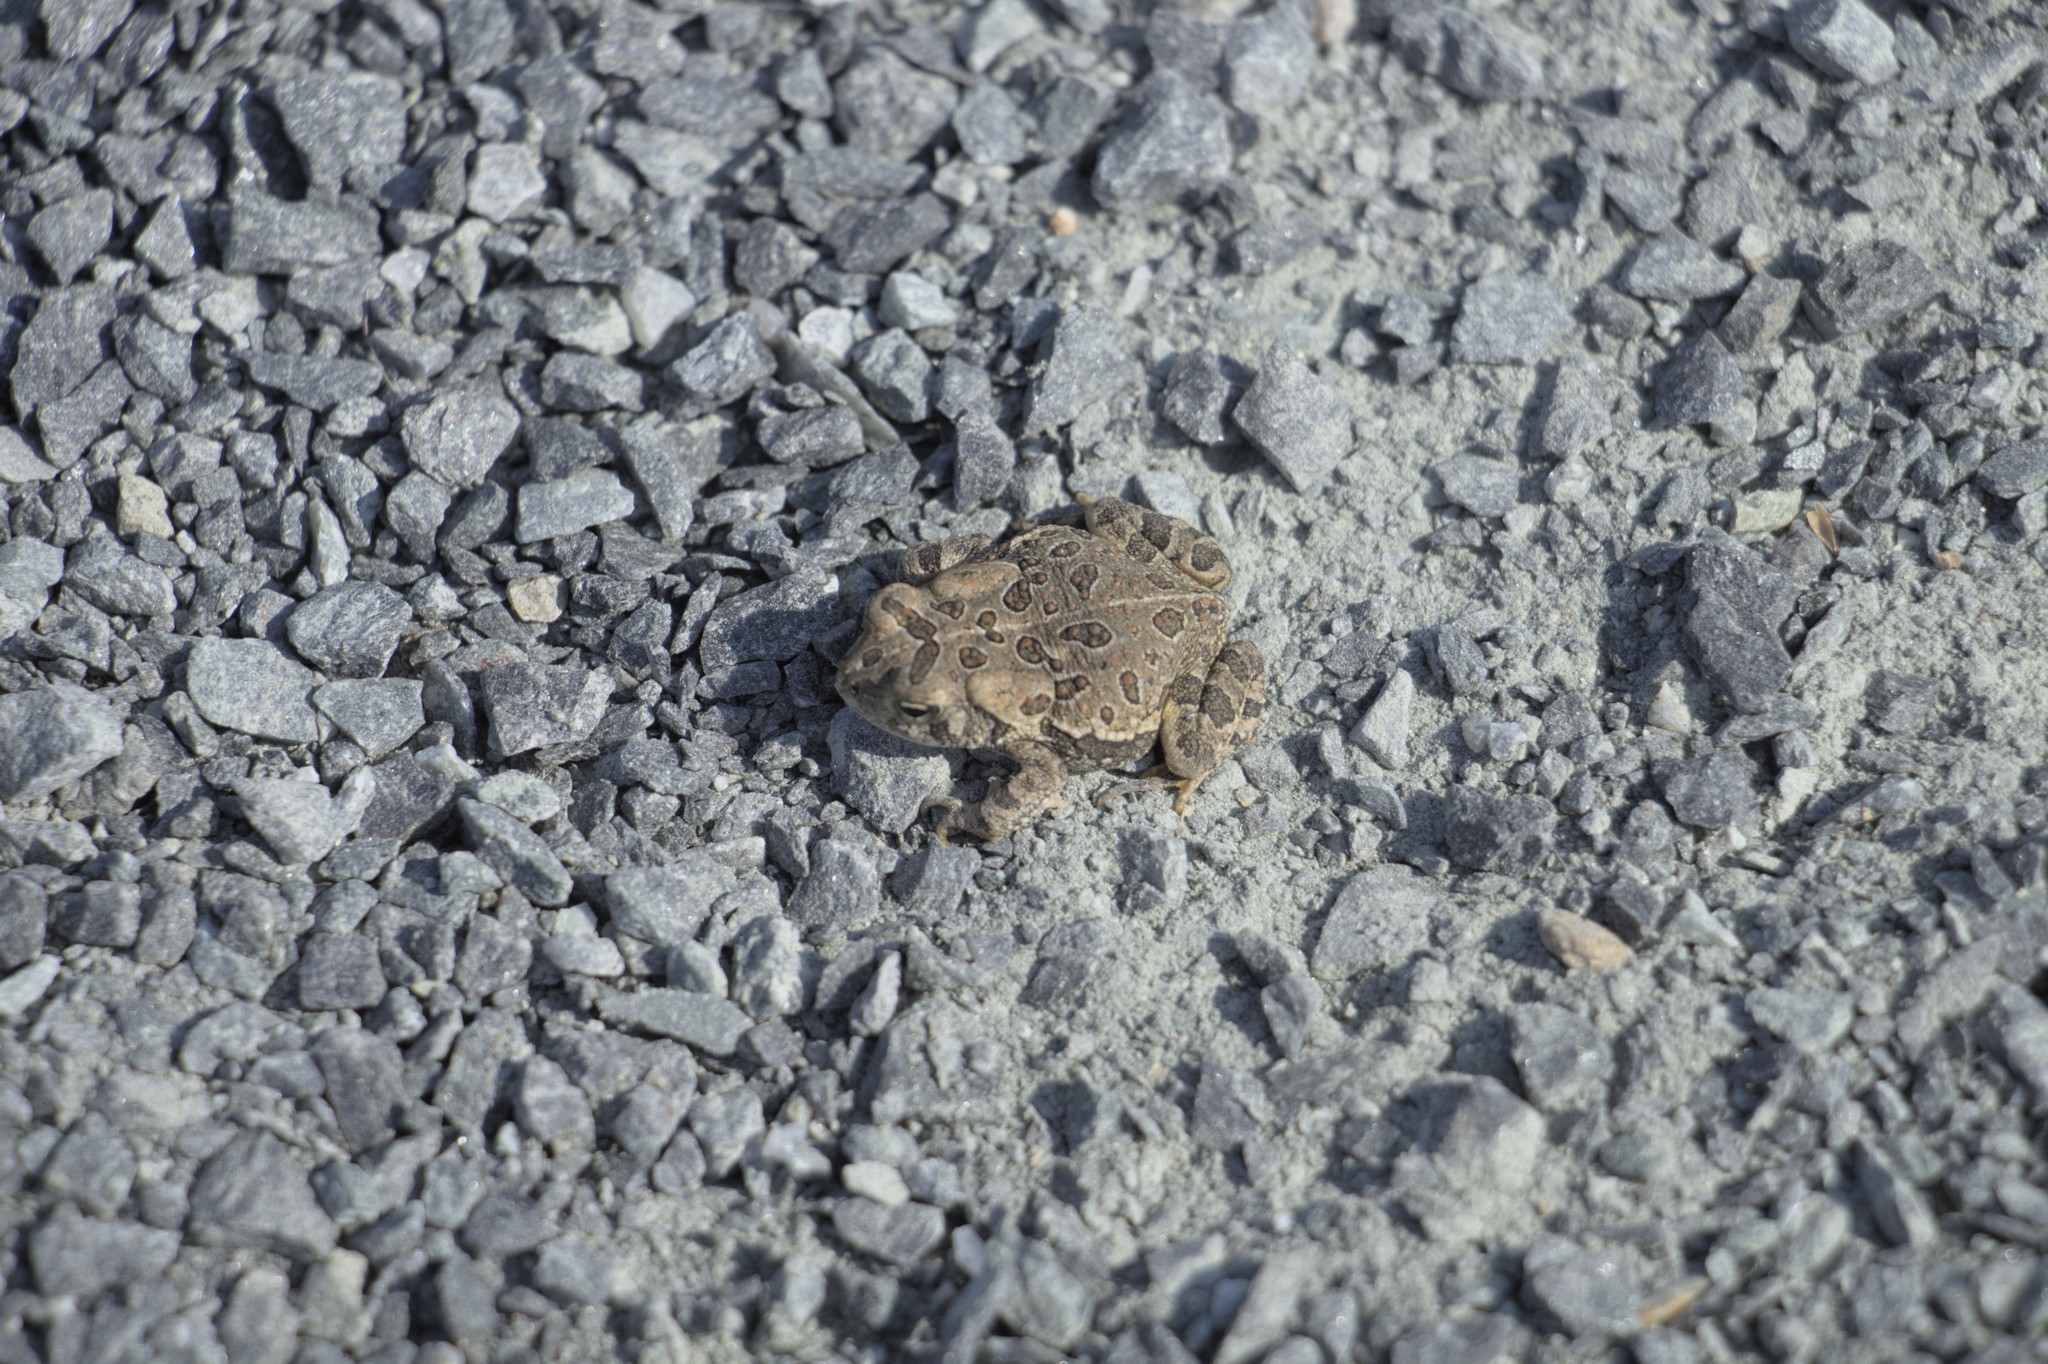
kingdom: Animalia
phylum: Chordata
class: Amphibia
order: Anura
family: Bufonidae
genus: Anaxyrus
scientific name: Anaxyrus fowleri
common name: Fowler's toad
